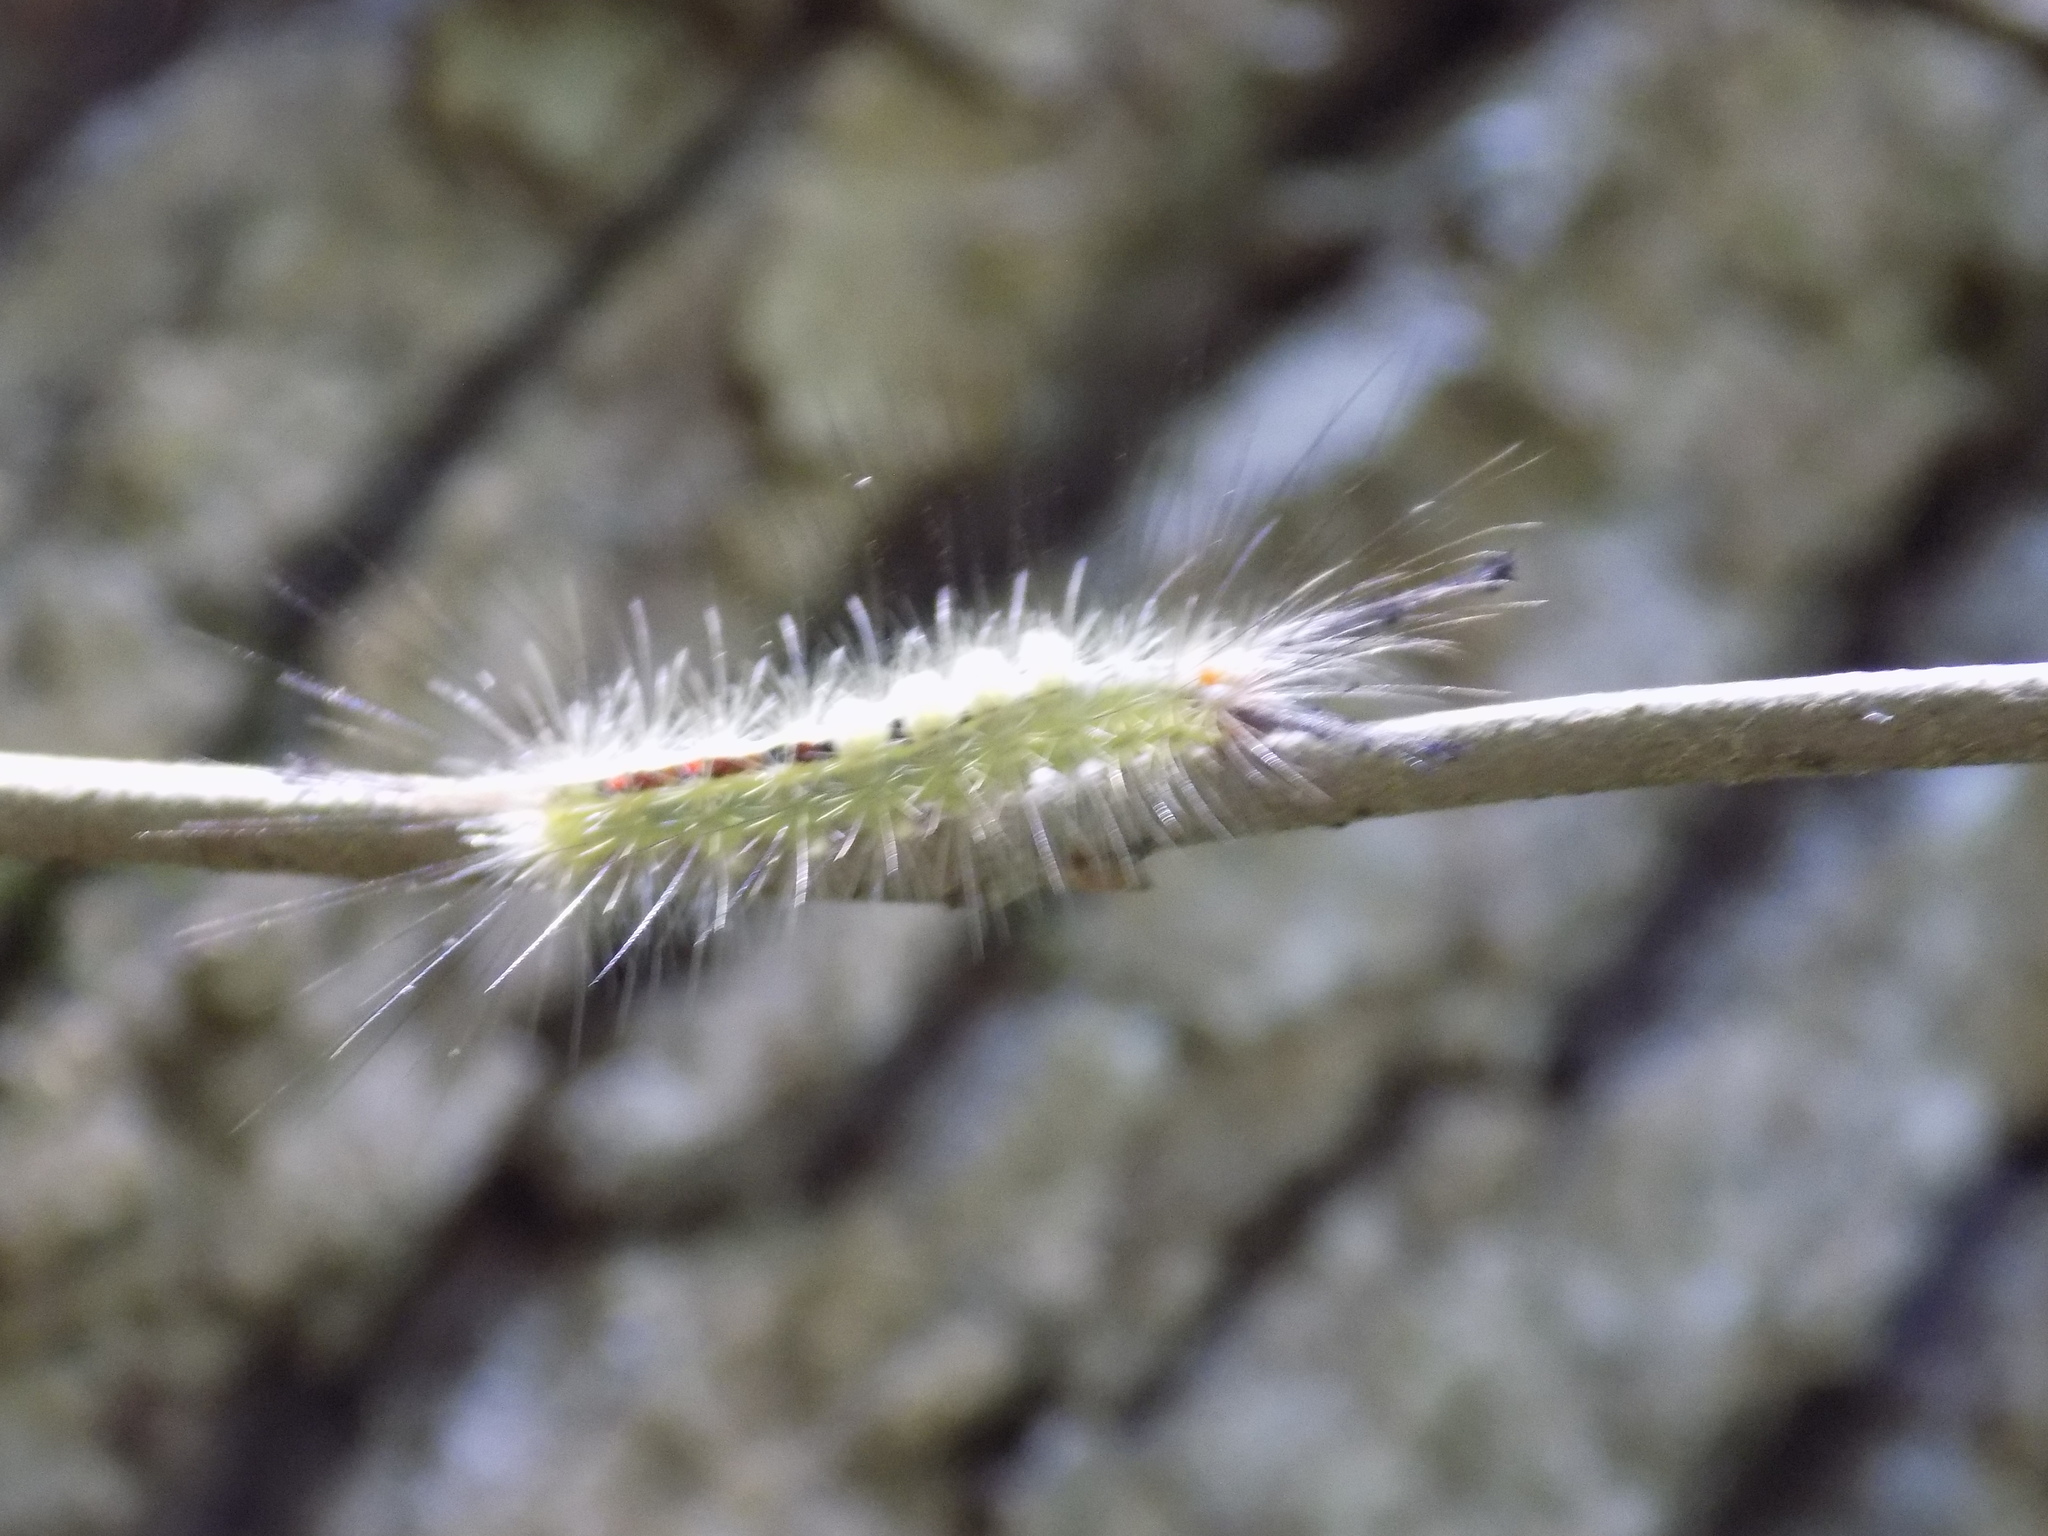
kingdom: Animalia
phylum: Arthropoda
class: Insecta
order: Lepidoptera
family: Erebidae
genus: Orgyia
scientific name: Orgyia leucostigma
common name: White-marked tussock moth
